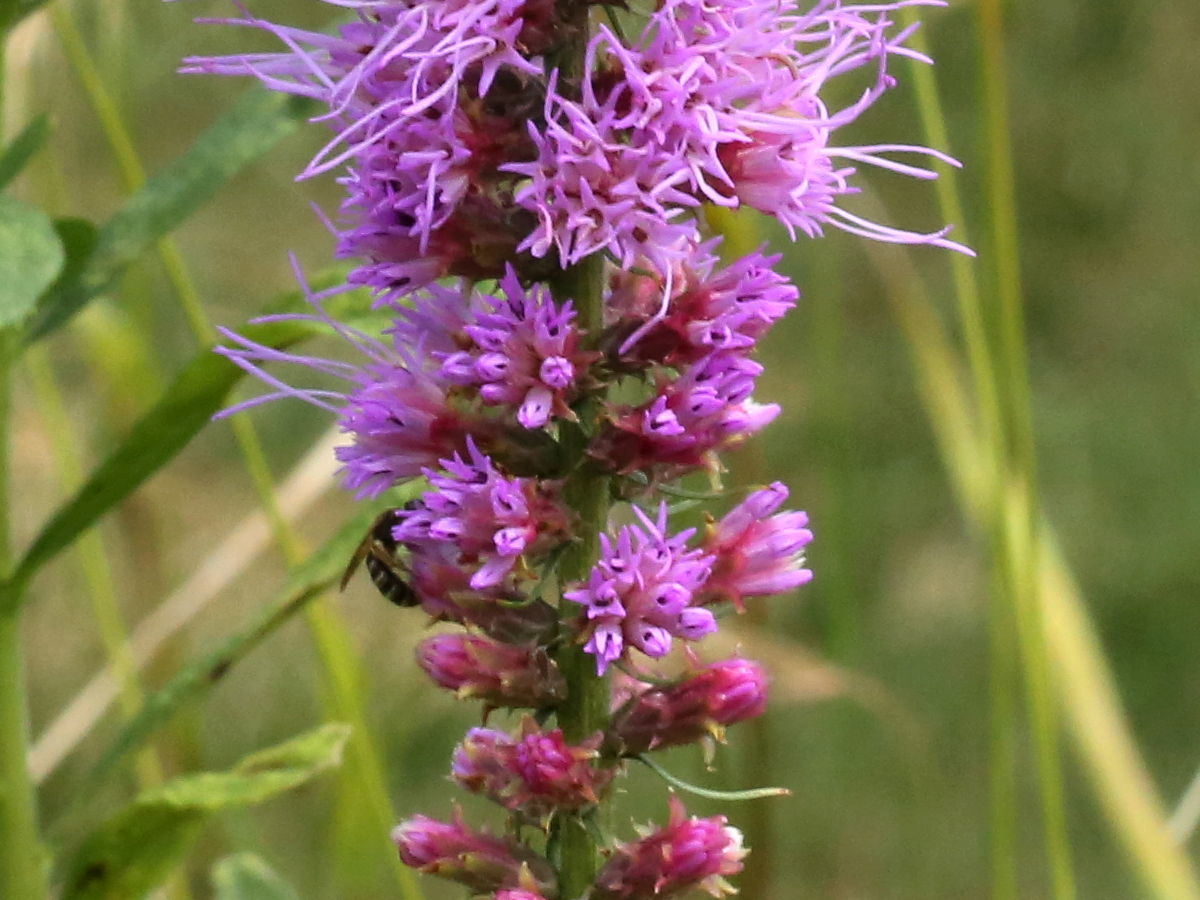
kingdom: Plantae
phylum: Tracheophyta
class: Magnoliopsida
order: Asterales
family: Asteraceae
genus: Liatris
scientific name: Liatris pycnostachya
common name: Cattail gayfeather
